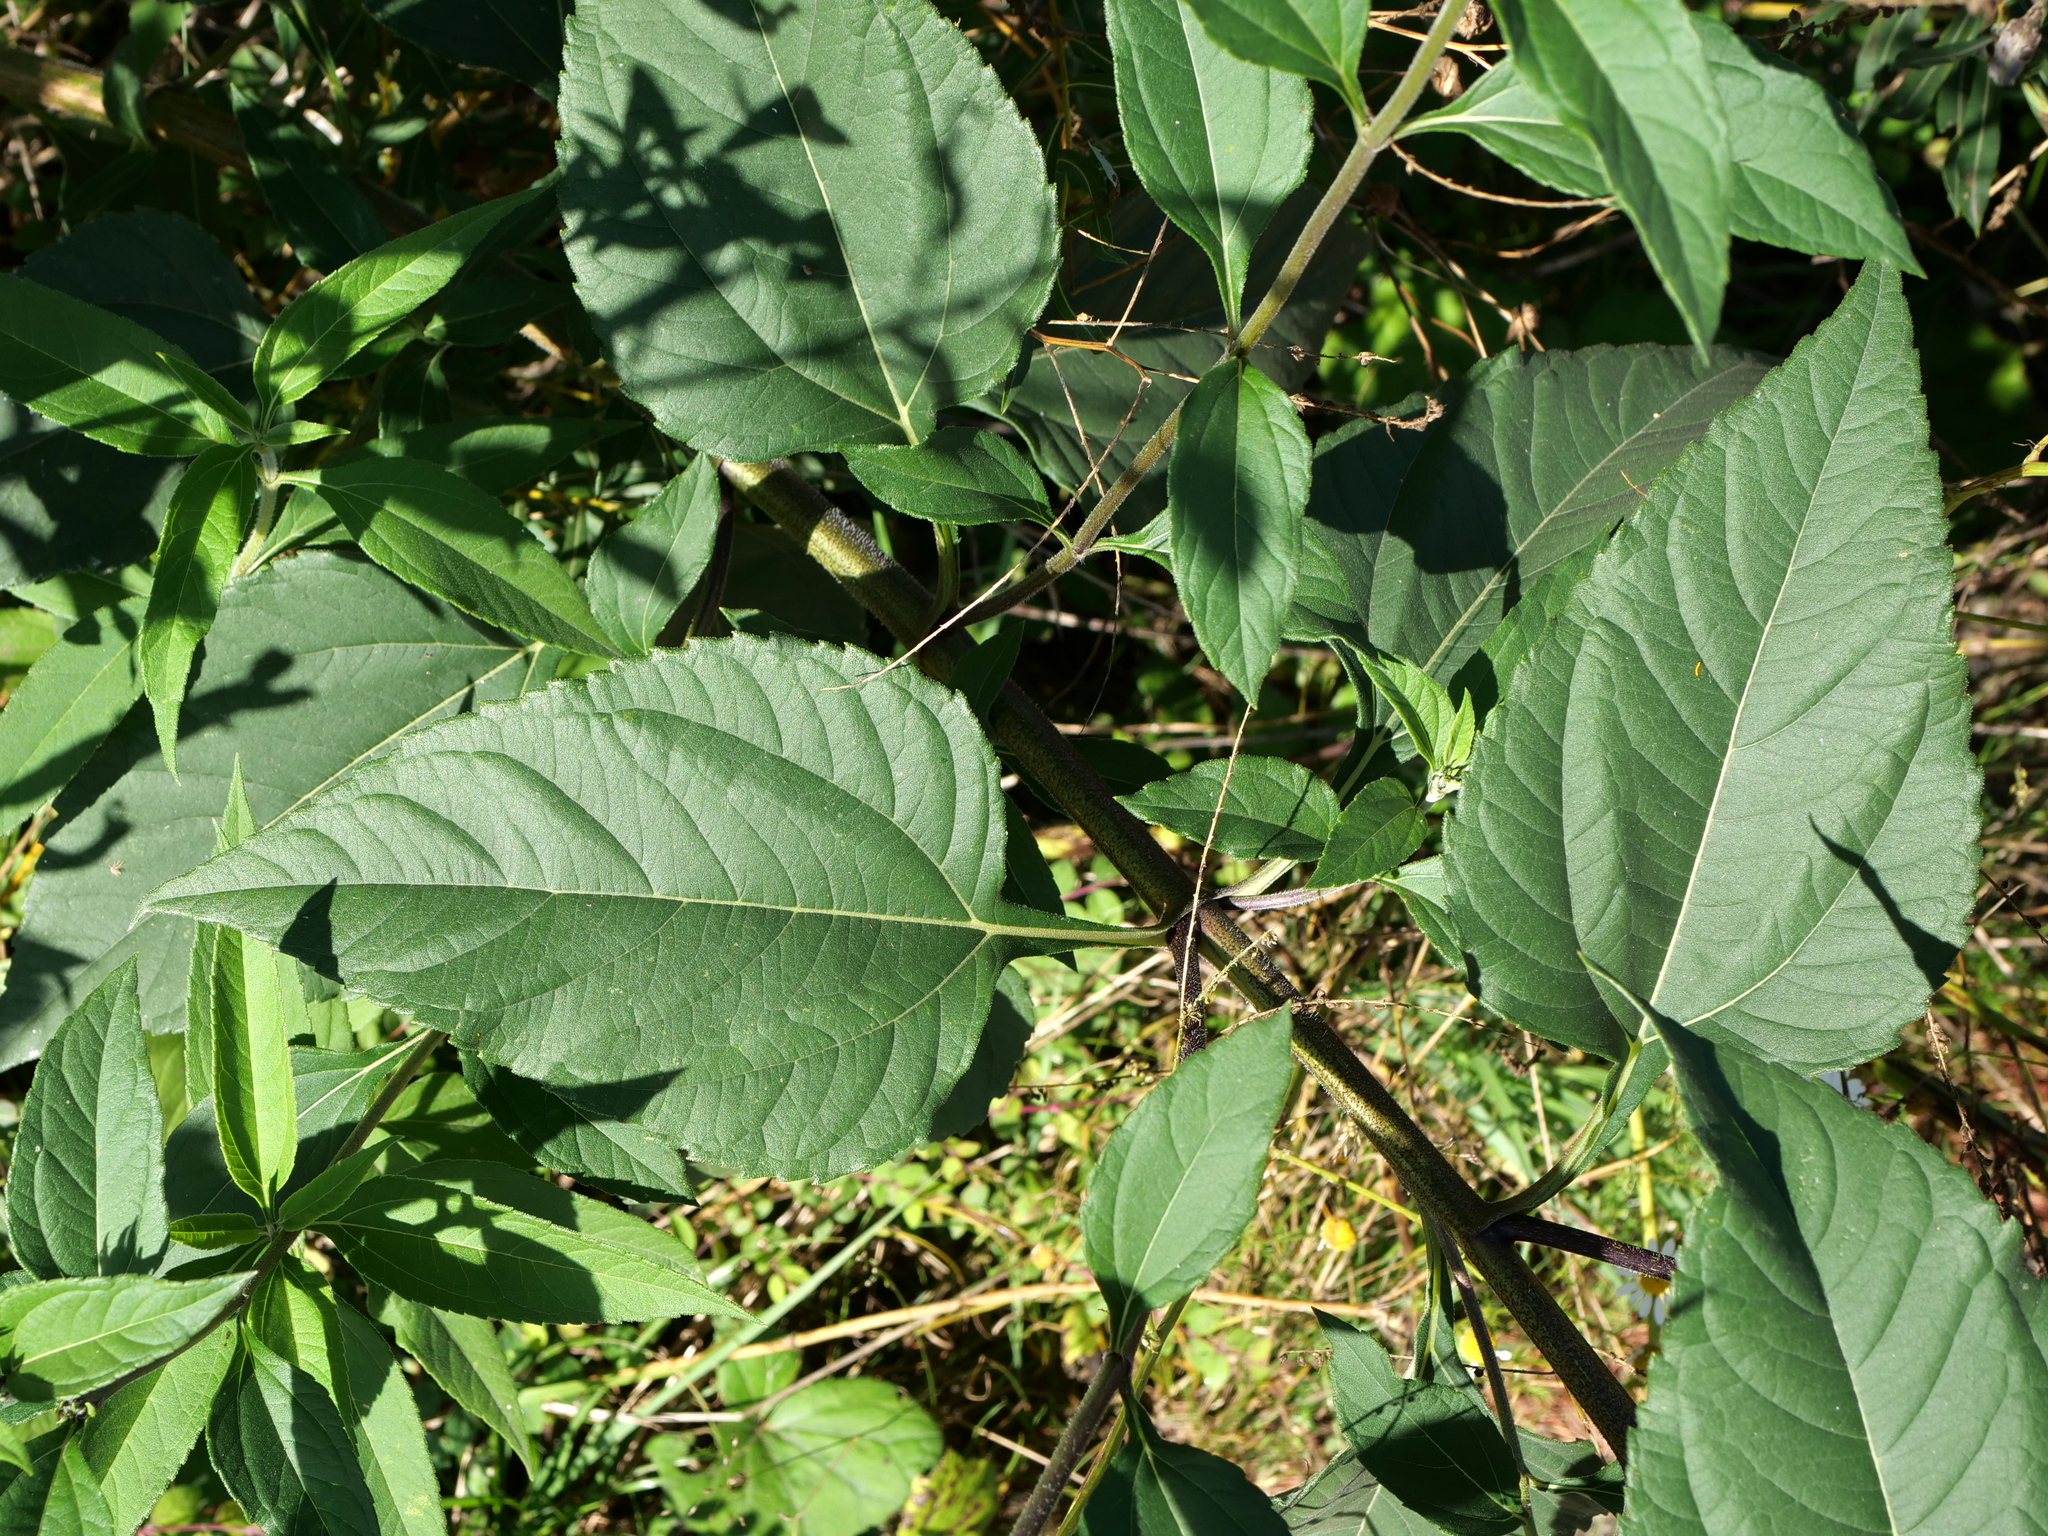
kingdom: Plantae
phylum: Tracheophyta
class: Magnoliopsida
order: Asterales
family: Asteraceae
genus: Helianthus
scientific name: Helianthus tuberosus
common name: Jerusalem artichoke
